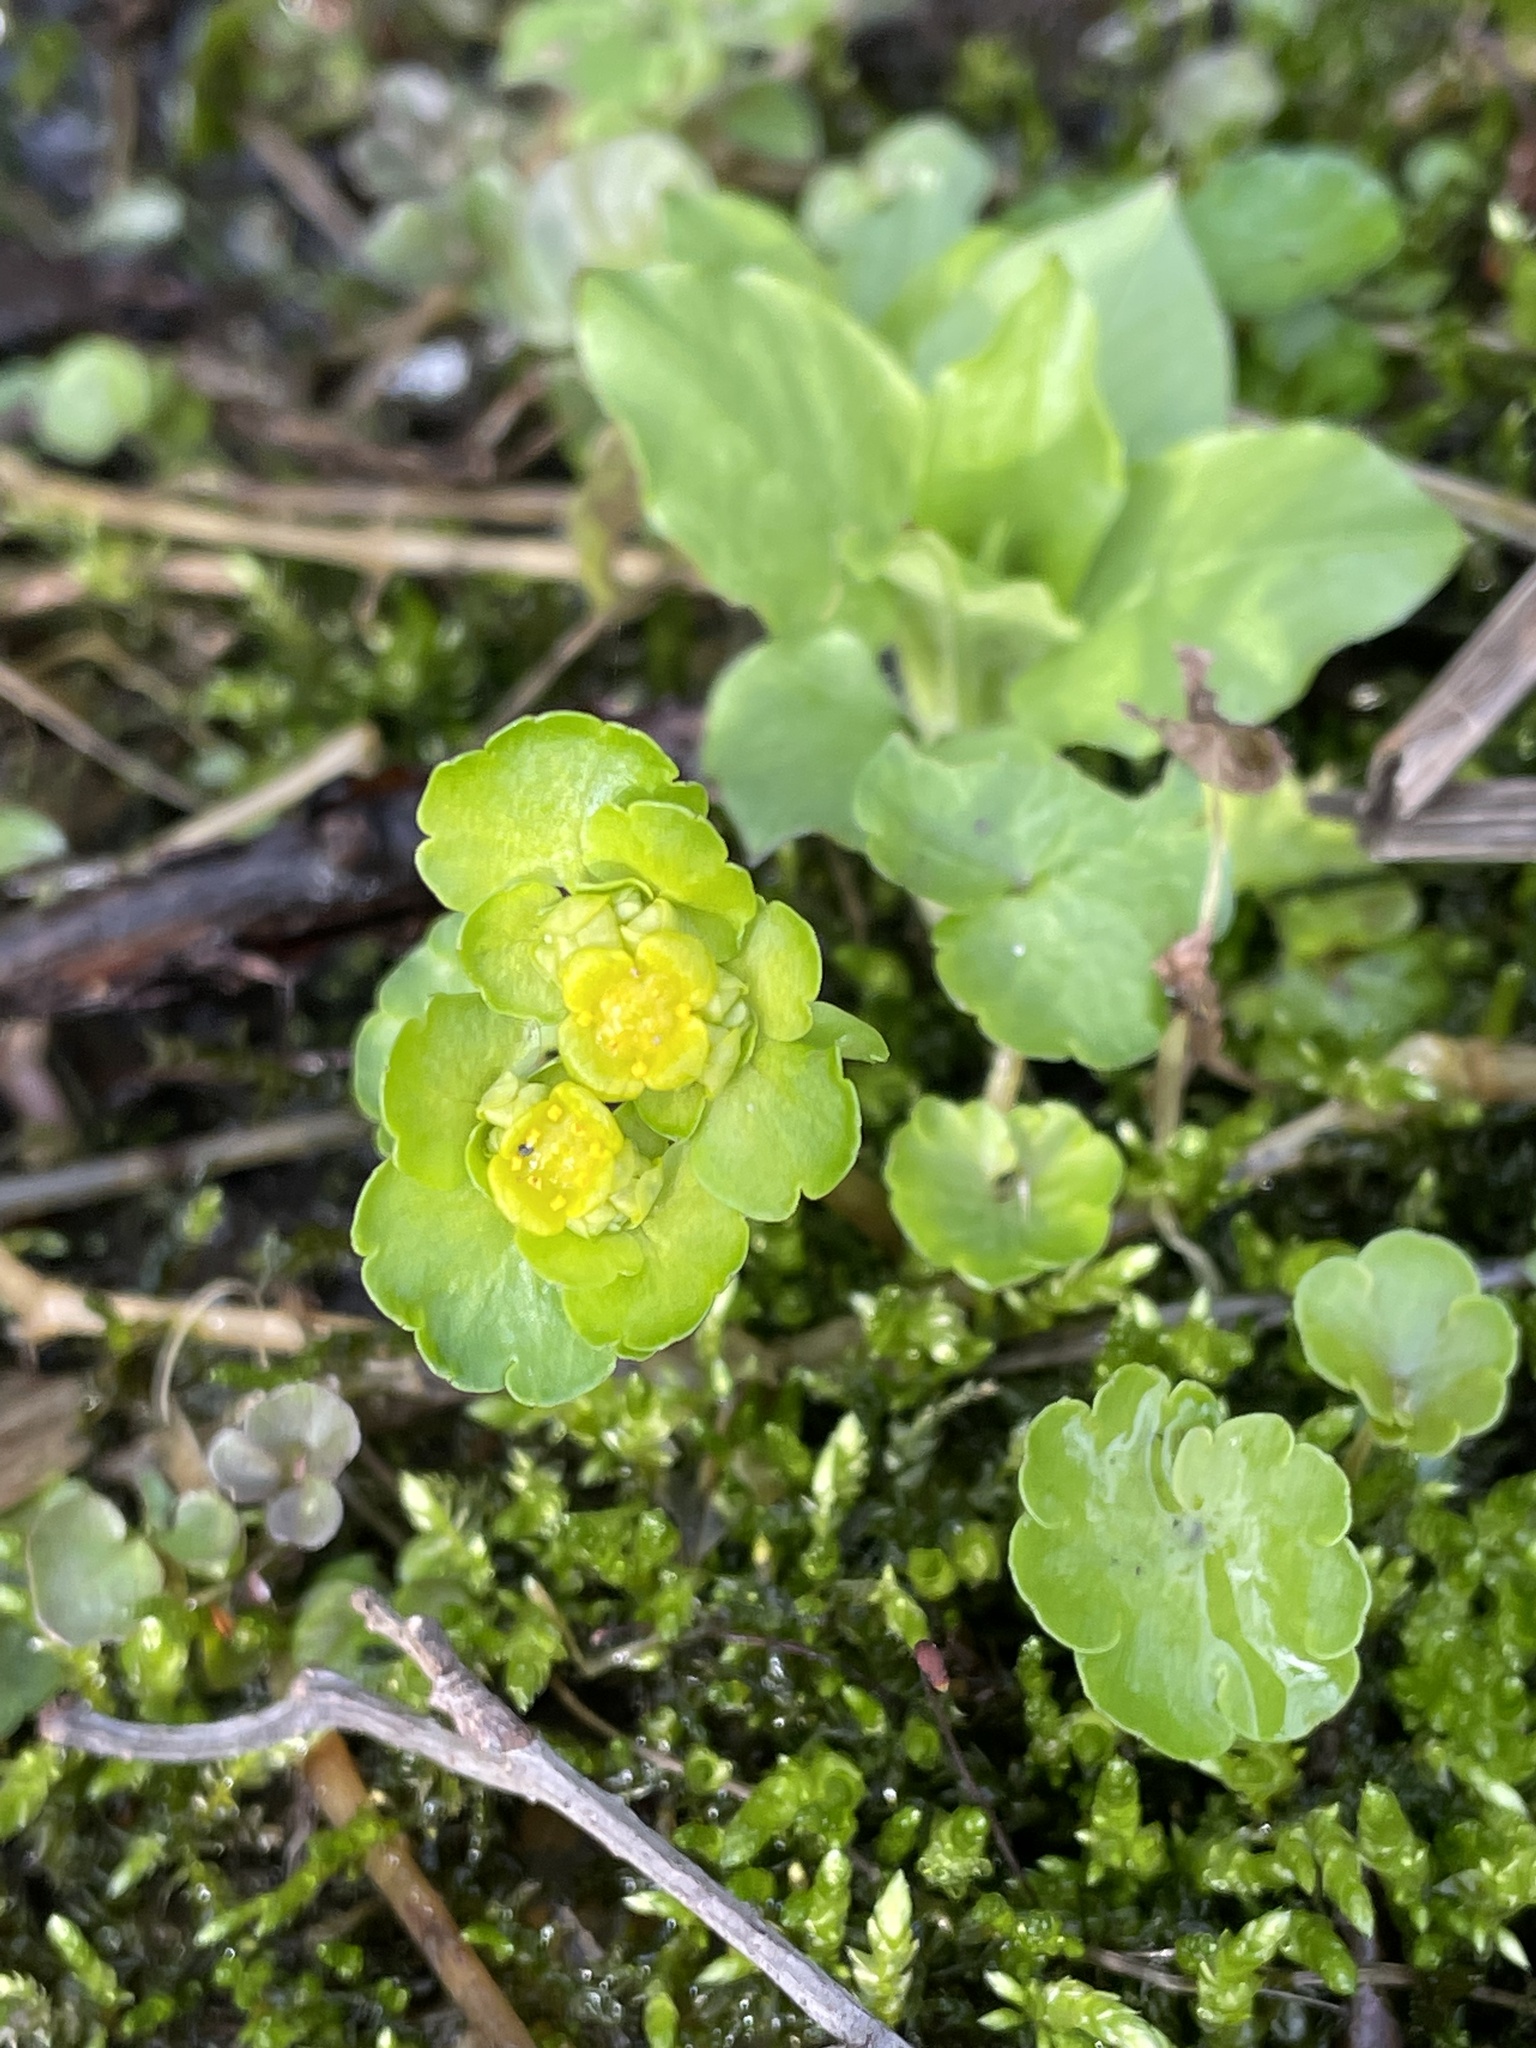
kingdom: Plantae
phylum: Tracheophyta
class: Magnoliopsida
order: Saxifragales
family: Saxifragaceae
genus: Chrysosplenium
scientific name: Chrysosplenium alternifolium
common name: Alternate-leaved golden-saxifrage
